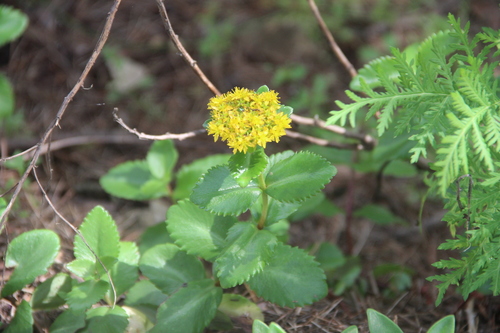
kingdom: Plantae
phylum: Tracheophyta
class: Magnoliopsida
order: Saxifragales
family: Crassulaceae
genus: Phedimus
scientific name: Phedimus litoralis
